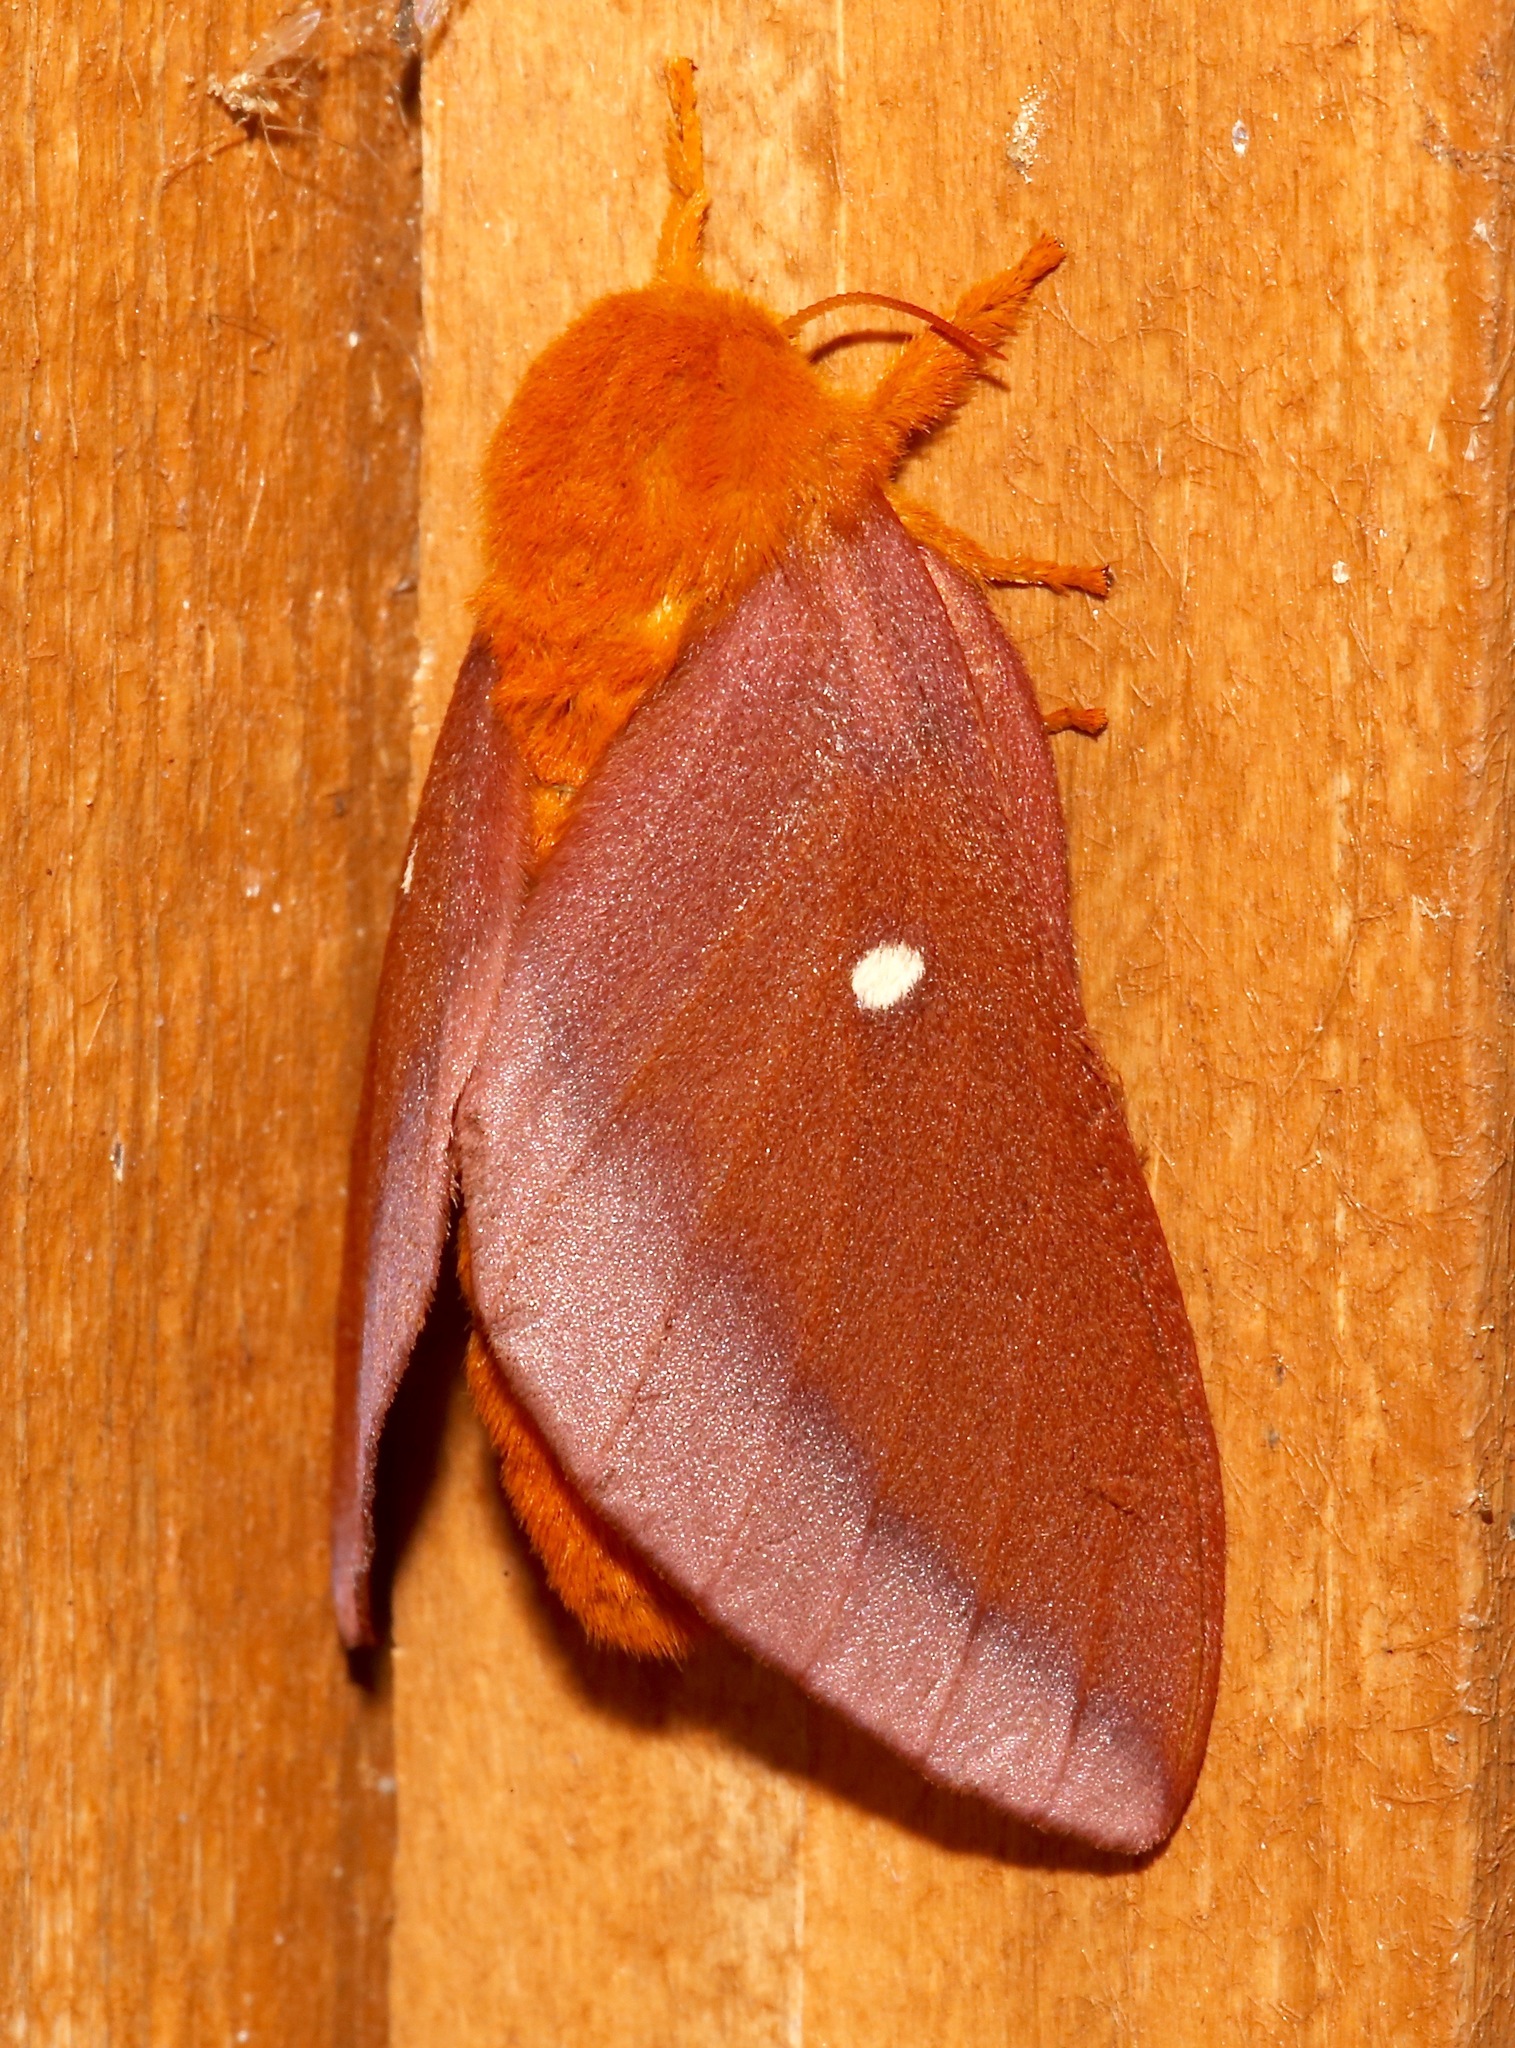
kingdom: Animalia
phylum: Arthropoda
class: Insecta
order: Lepidoptera
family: Saturniidae
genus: Anisota
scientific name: Anisota virginiensis
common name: Pink striped oakworm moth
